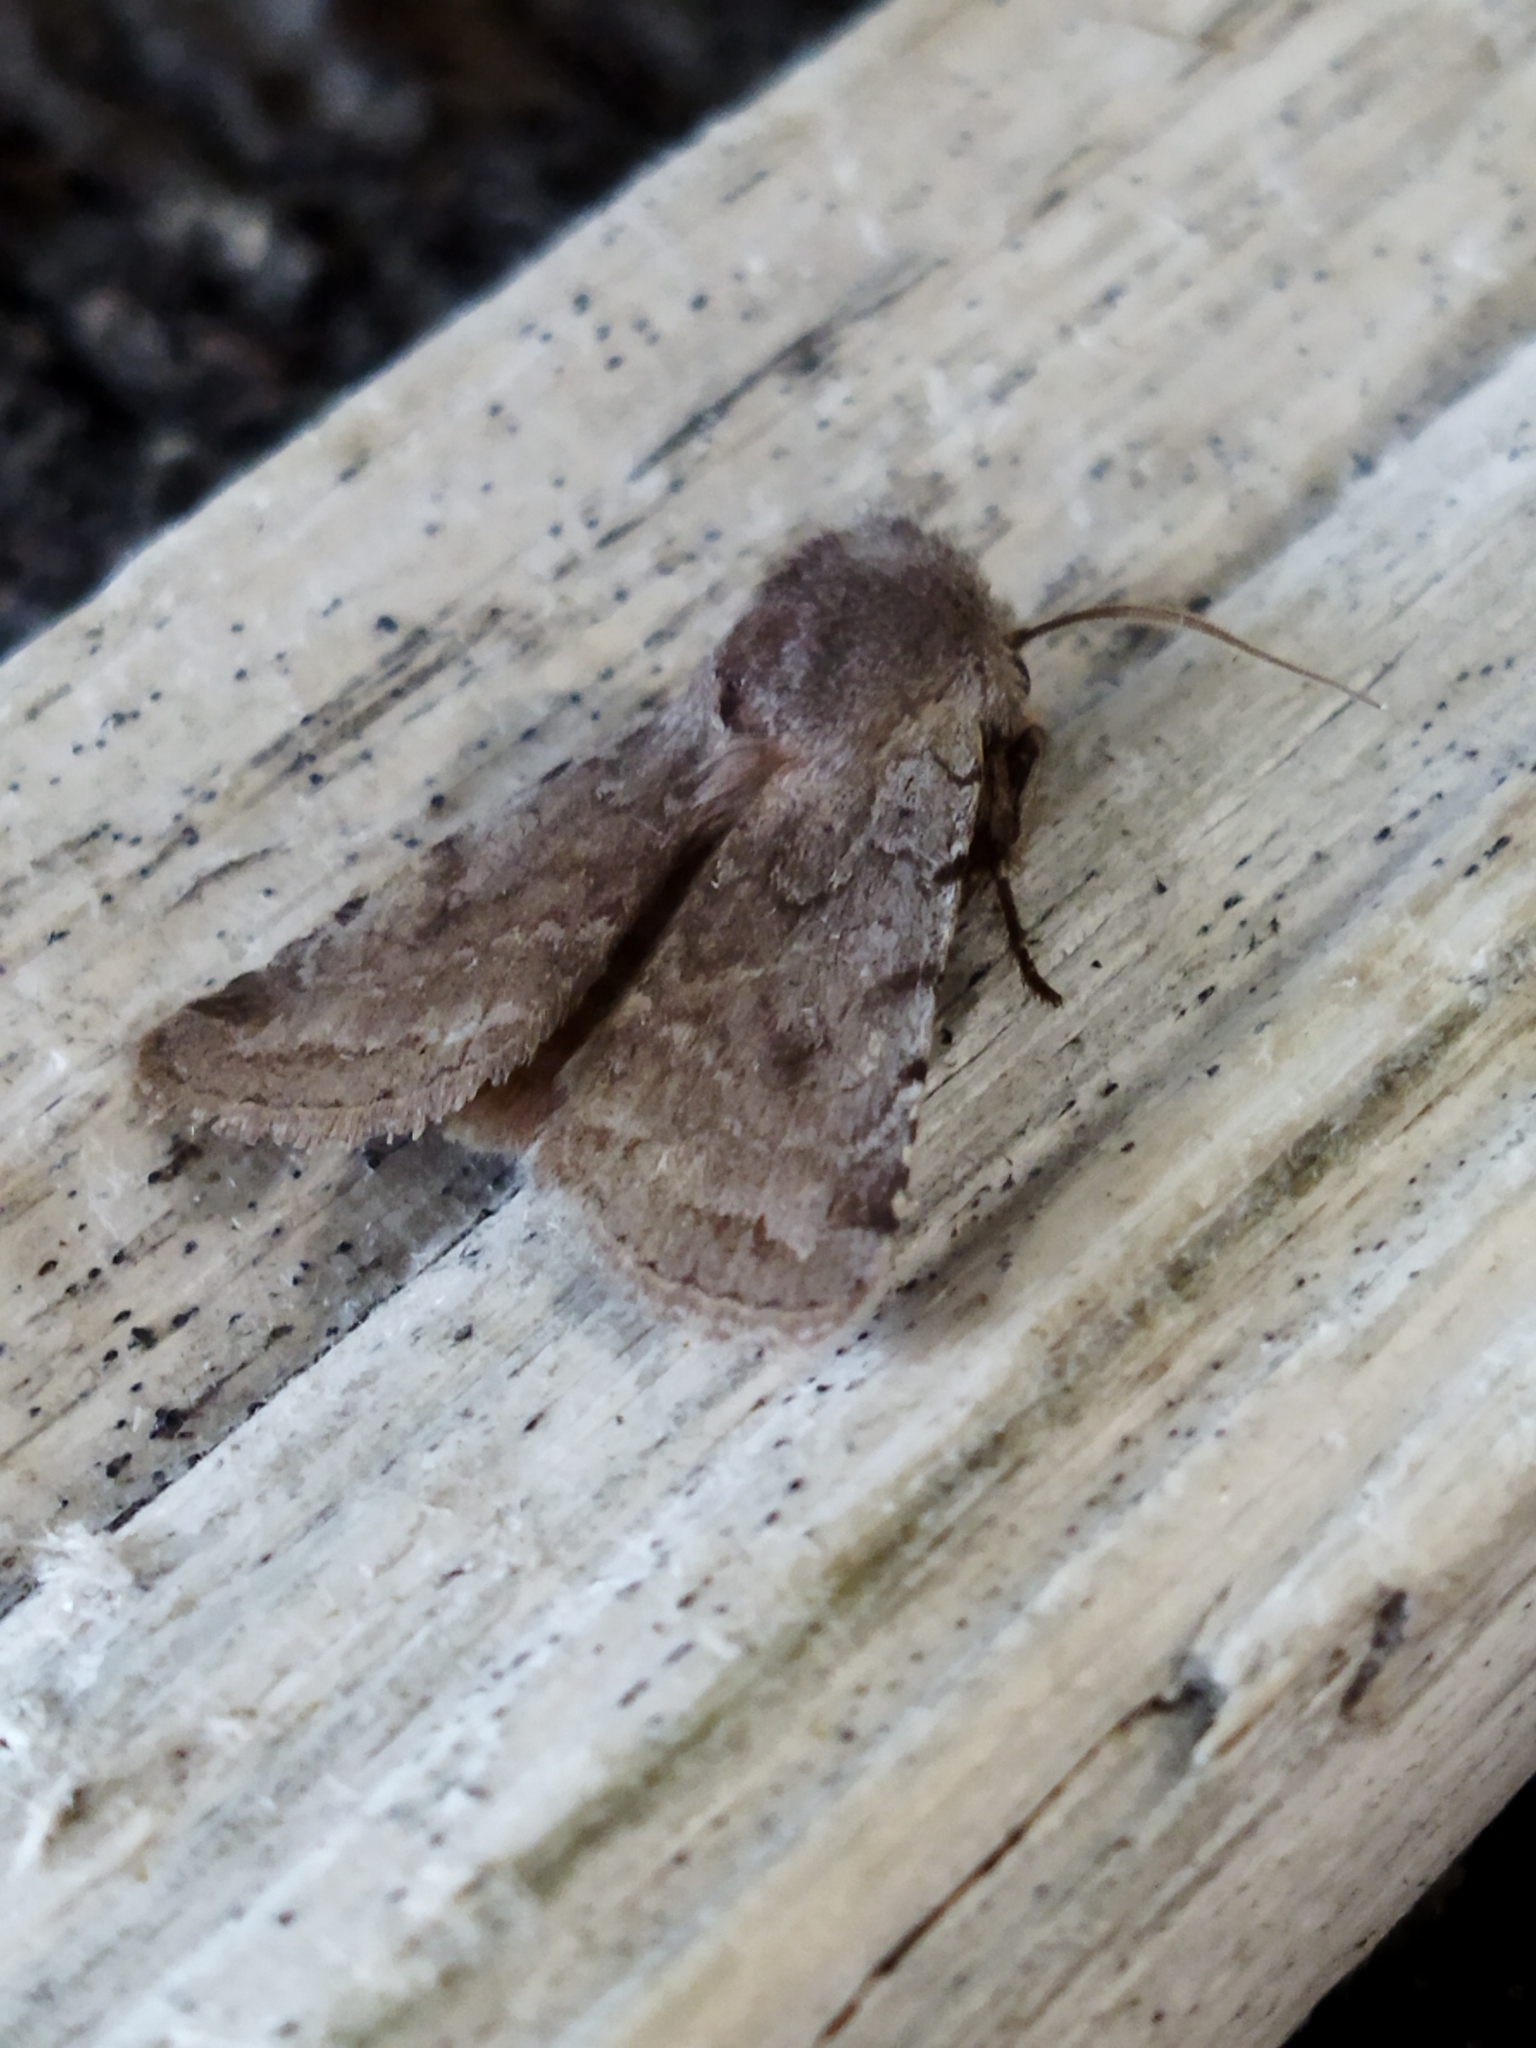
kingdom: Animalia
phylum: Arthropoda
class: Insecta
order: Lepidoptera
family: Noctuidae
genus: Cerastis
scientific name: Cerastis rubricosa
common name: Red chestnut
